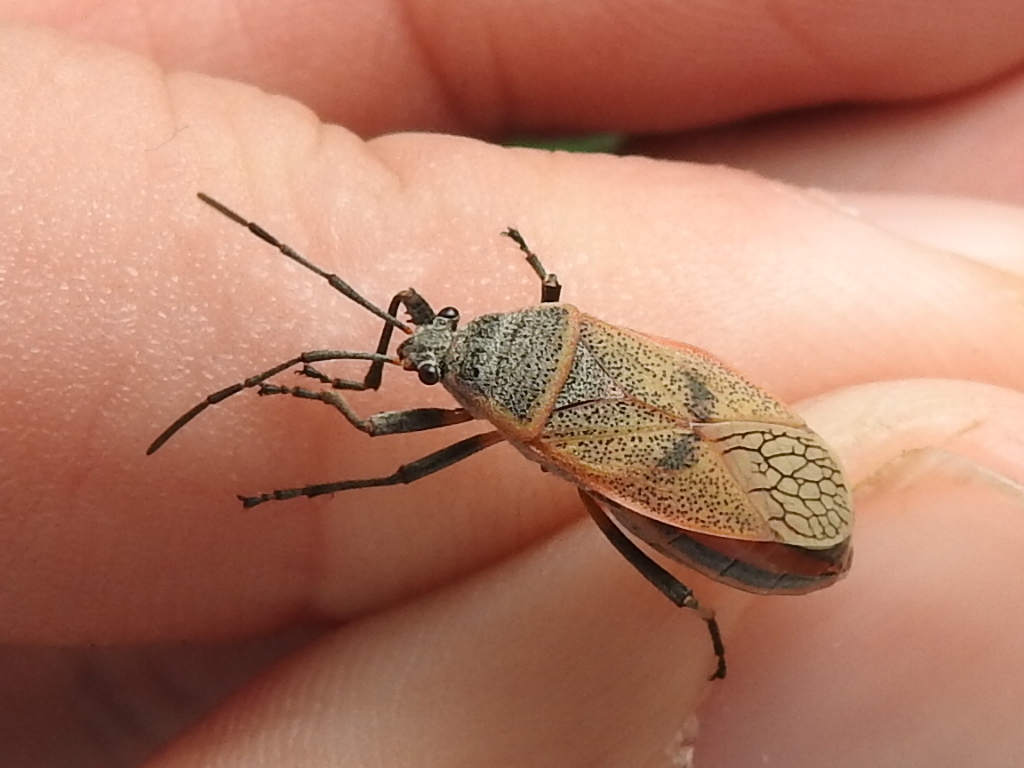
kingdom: Animalia
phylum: Arthropoda
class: Insecta
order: Hemiptera
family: Largidae
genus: Largus
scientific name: Largus maculatus
